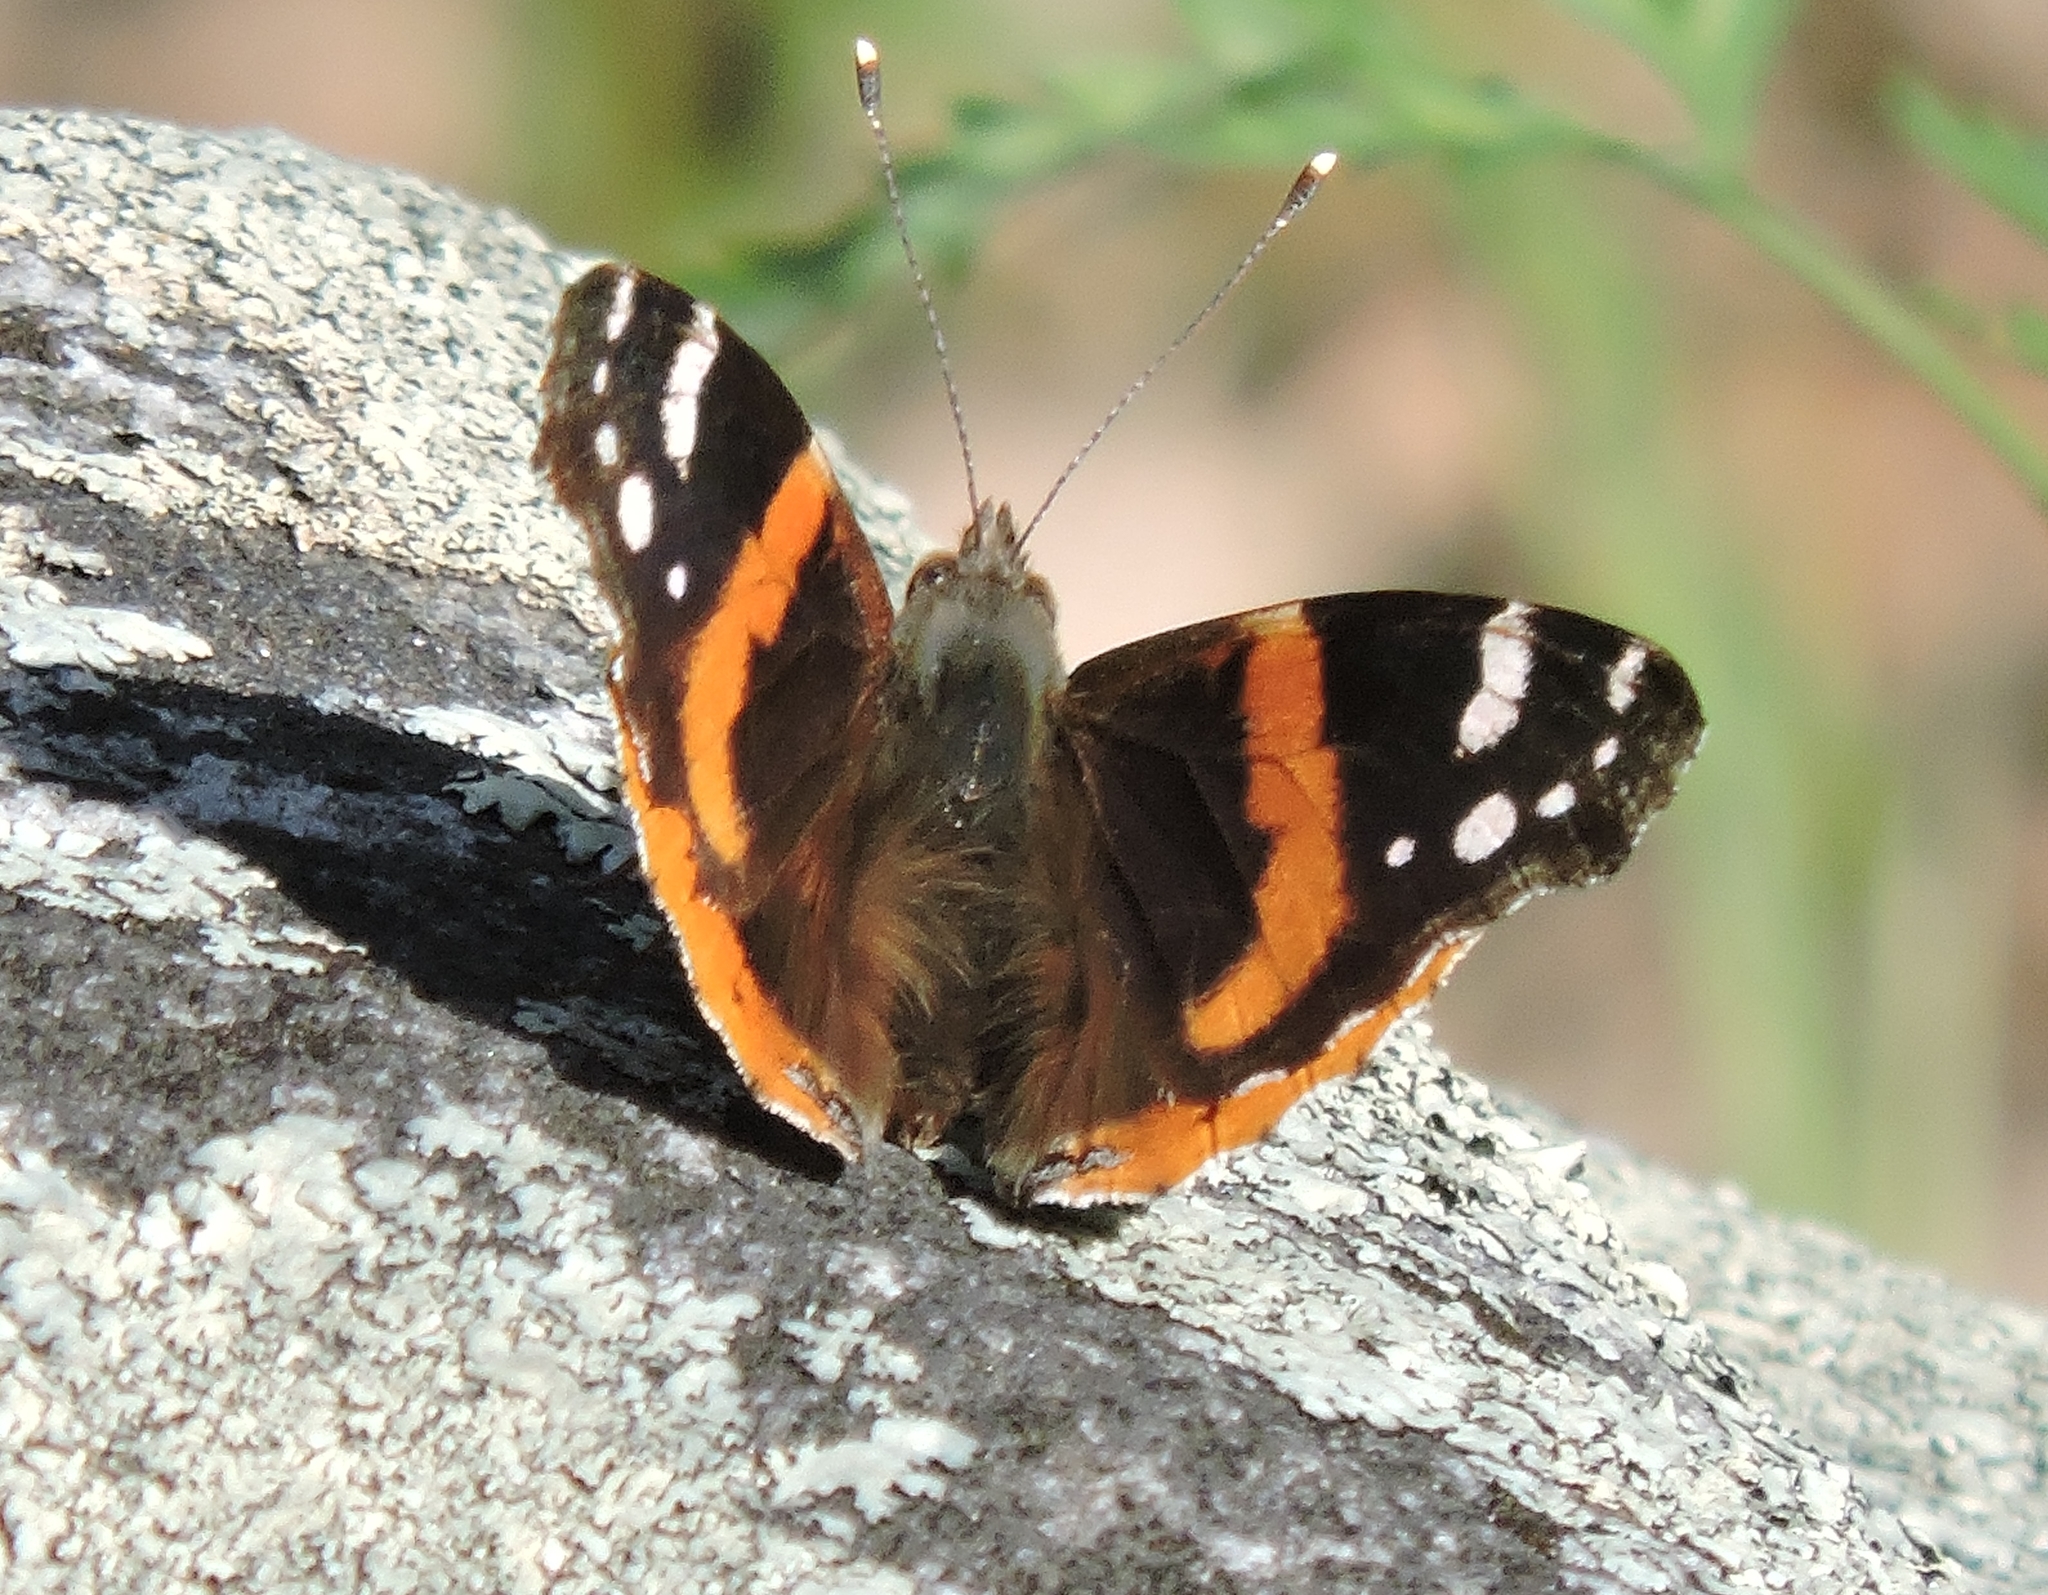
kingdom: Animalia
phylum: Arthropoda
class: Insecta
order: Lepidoptera
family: Nymphalidae
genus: Vanessa
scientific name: Vanessa atalanta
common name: Red admiral
